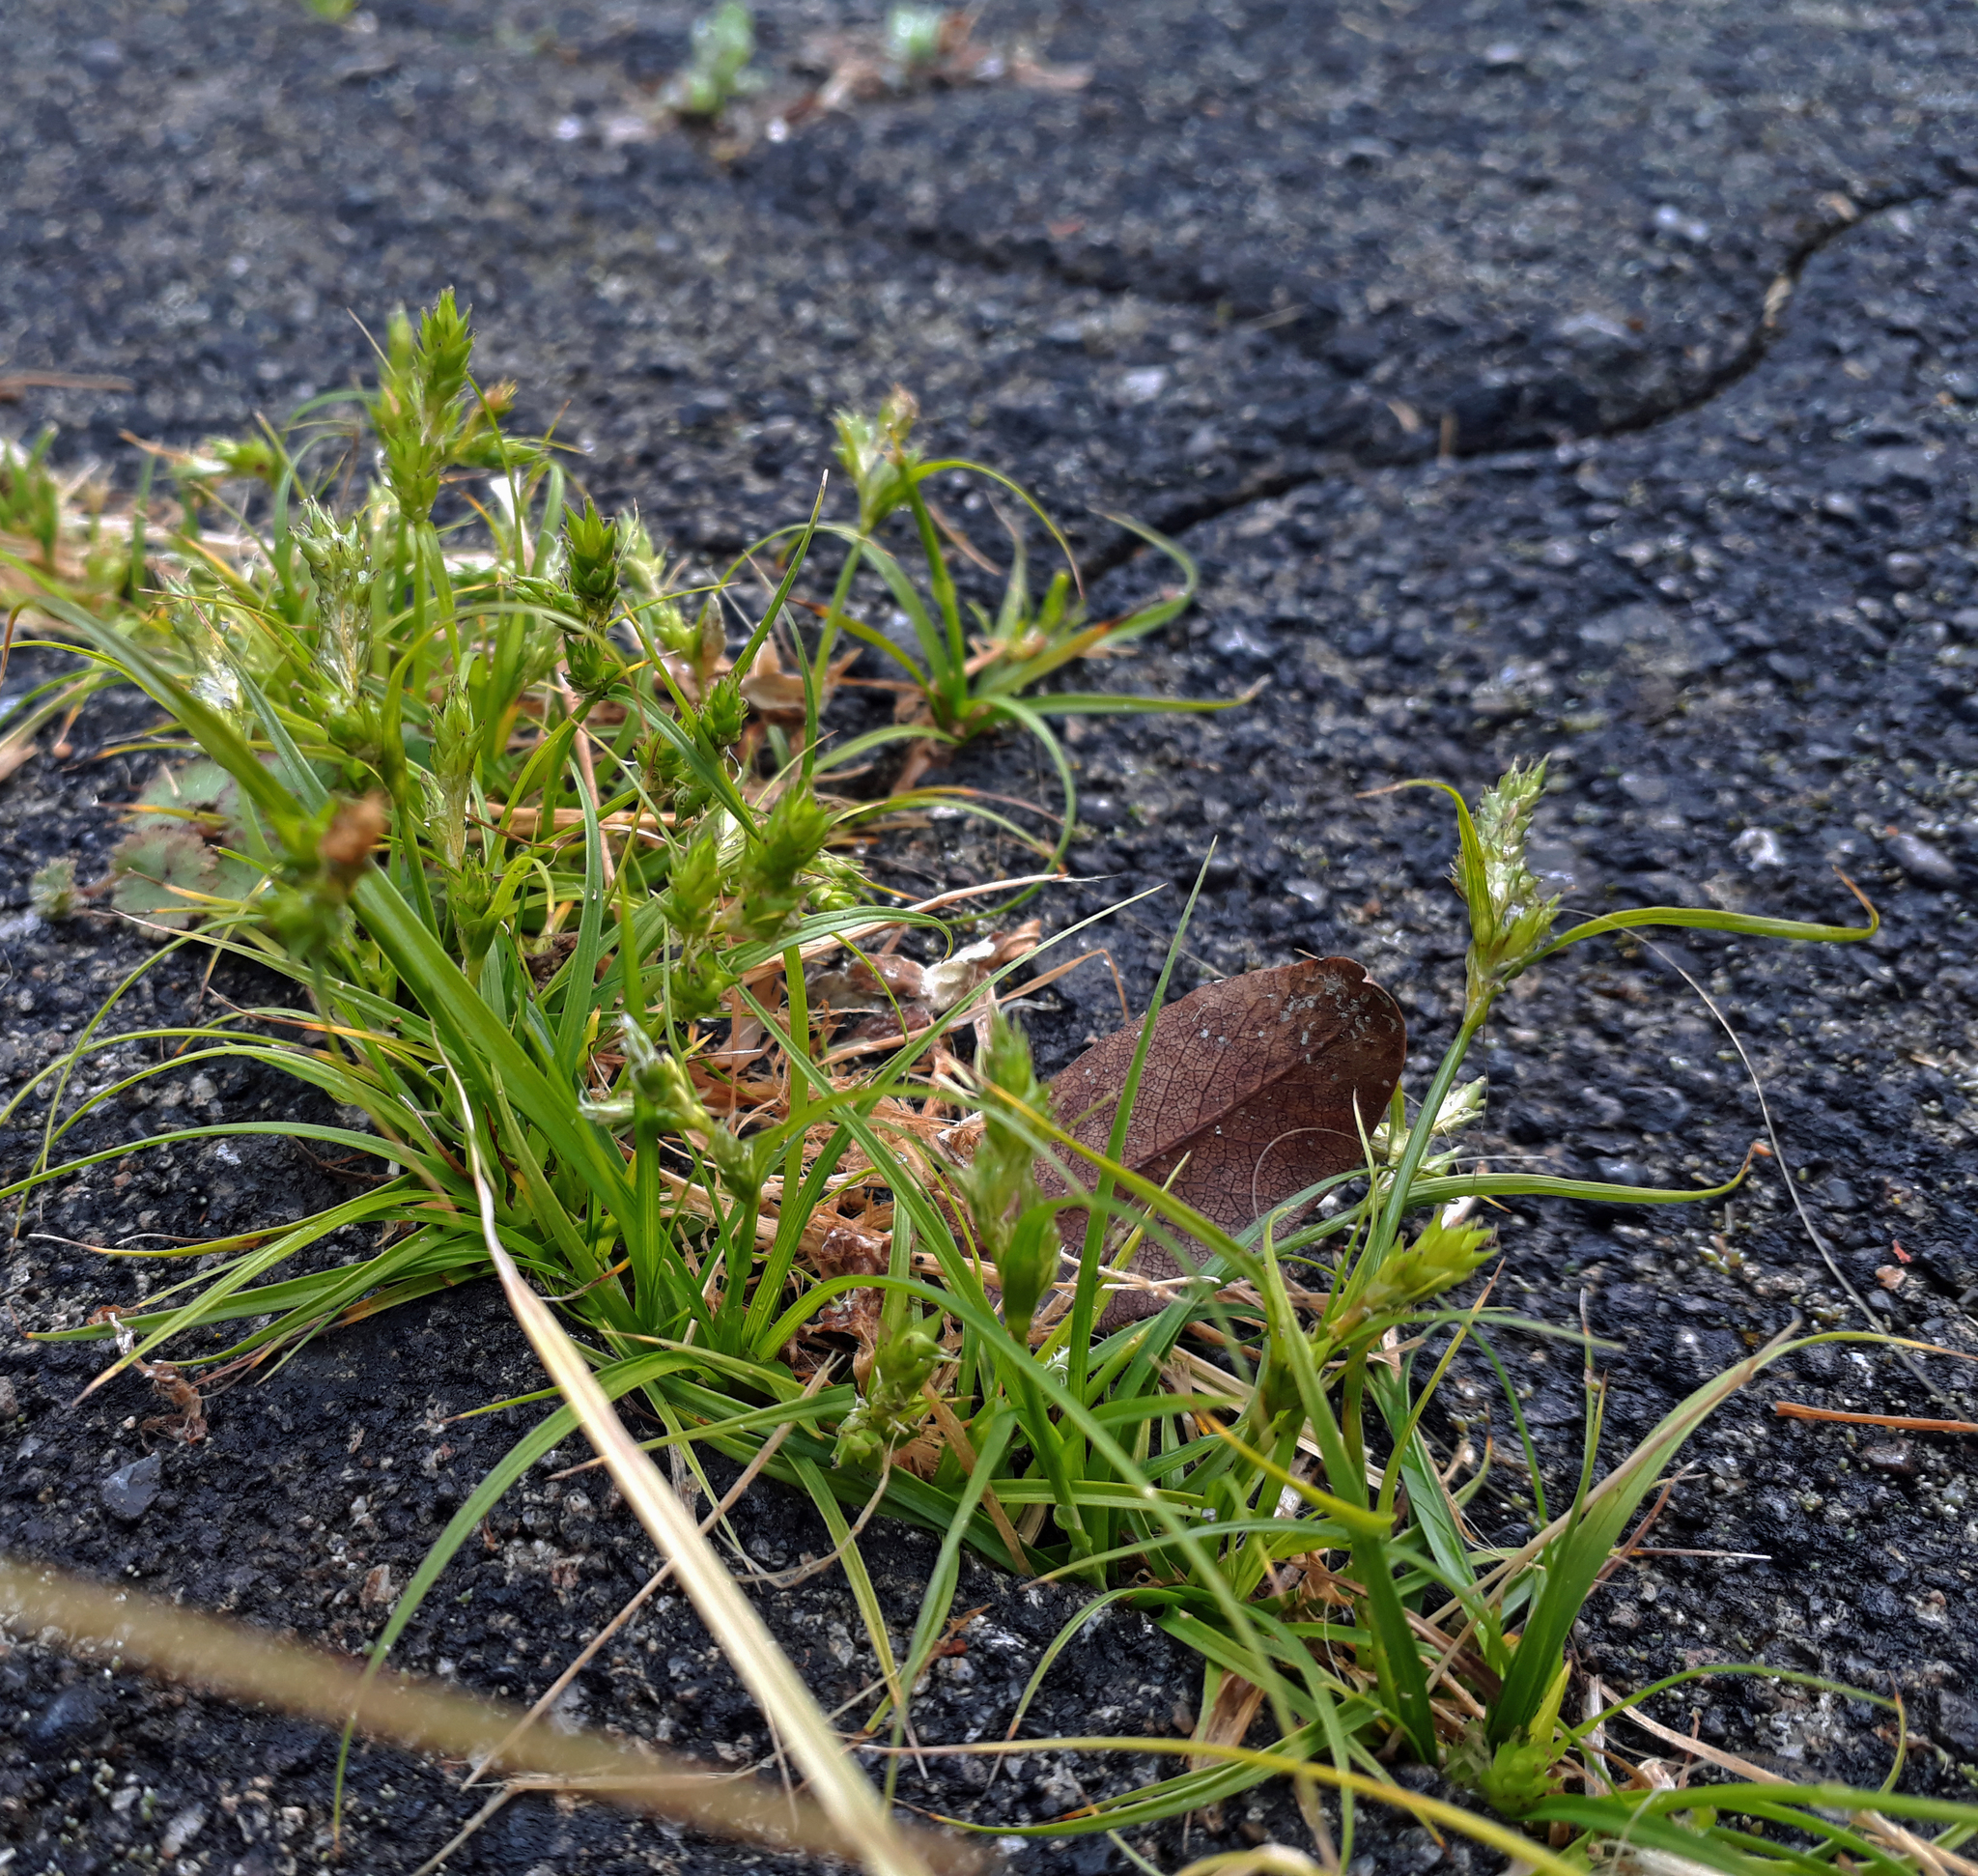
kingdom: Plantae
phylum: Tracheophyta
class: Liliopsida
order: Poales
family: Cyperaceae
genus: Carex
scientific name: Carex inversa
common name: Knob sedge
